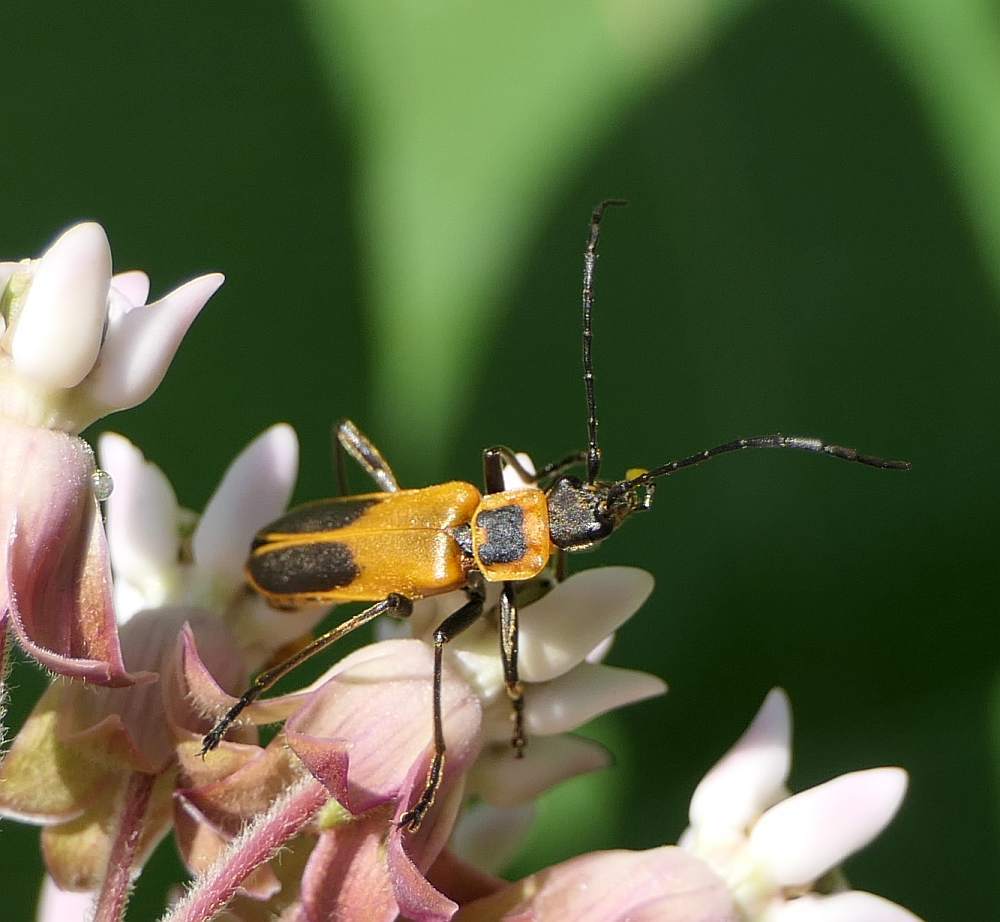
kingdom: Animalia
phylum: Arthropoda
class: Insecta
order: Coleoptera
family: Cantharidae
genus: Chauliognathus
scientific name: Chauliognathus pensylvanicus
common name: Goldenrod soldier beetle
